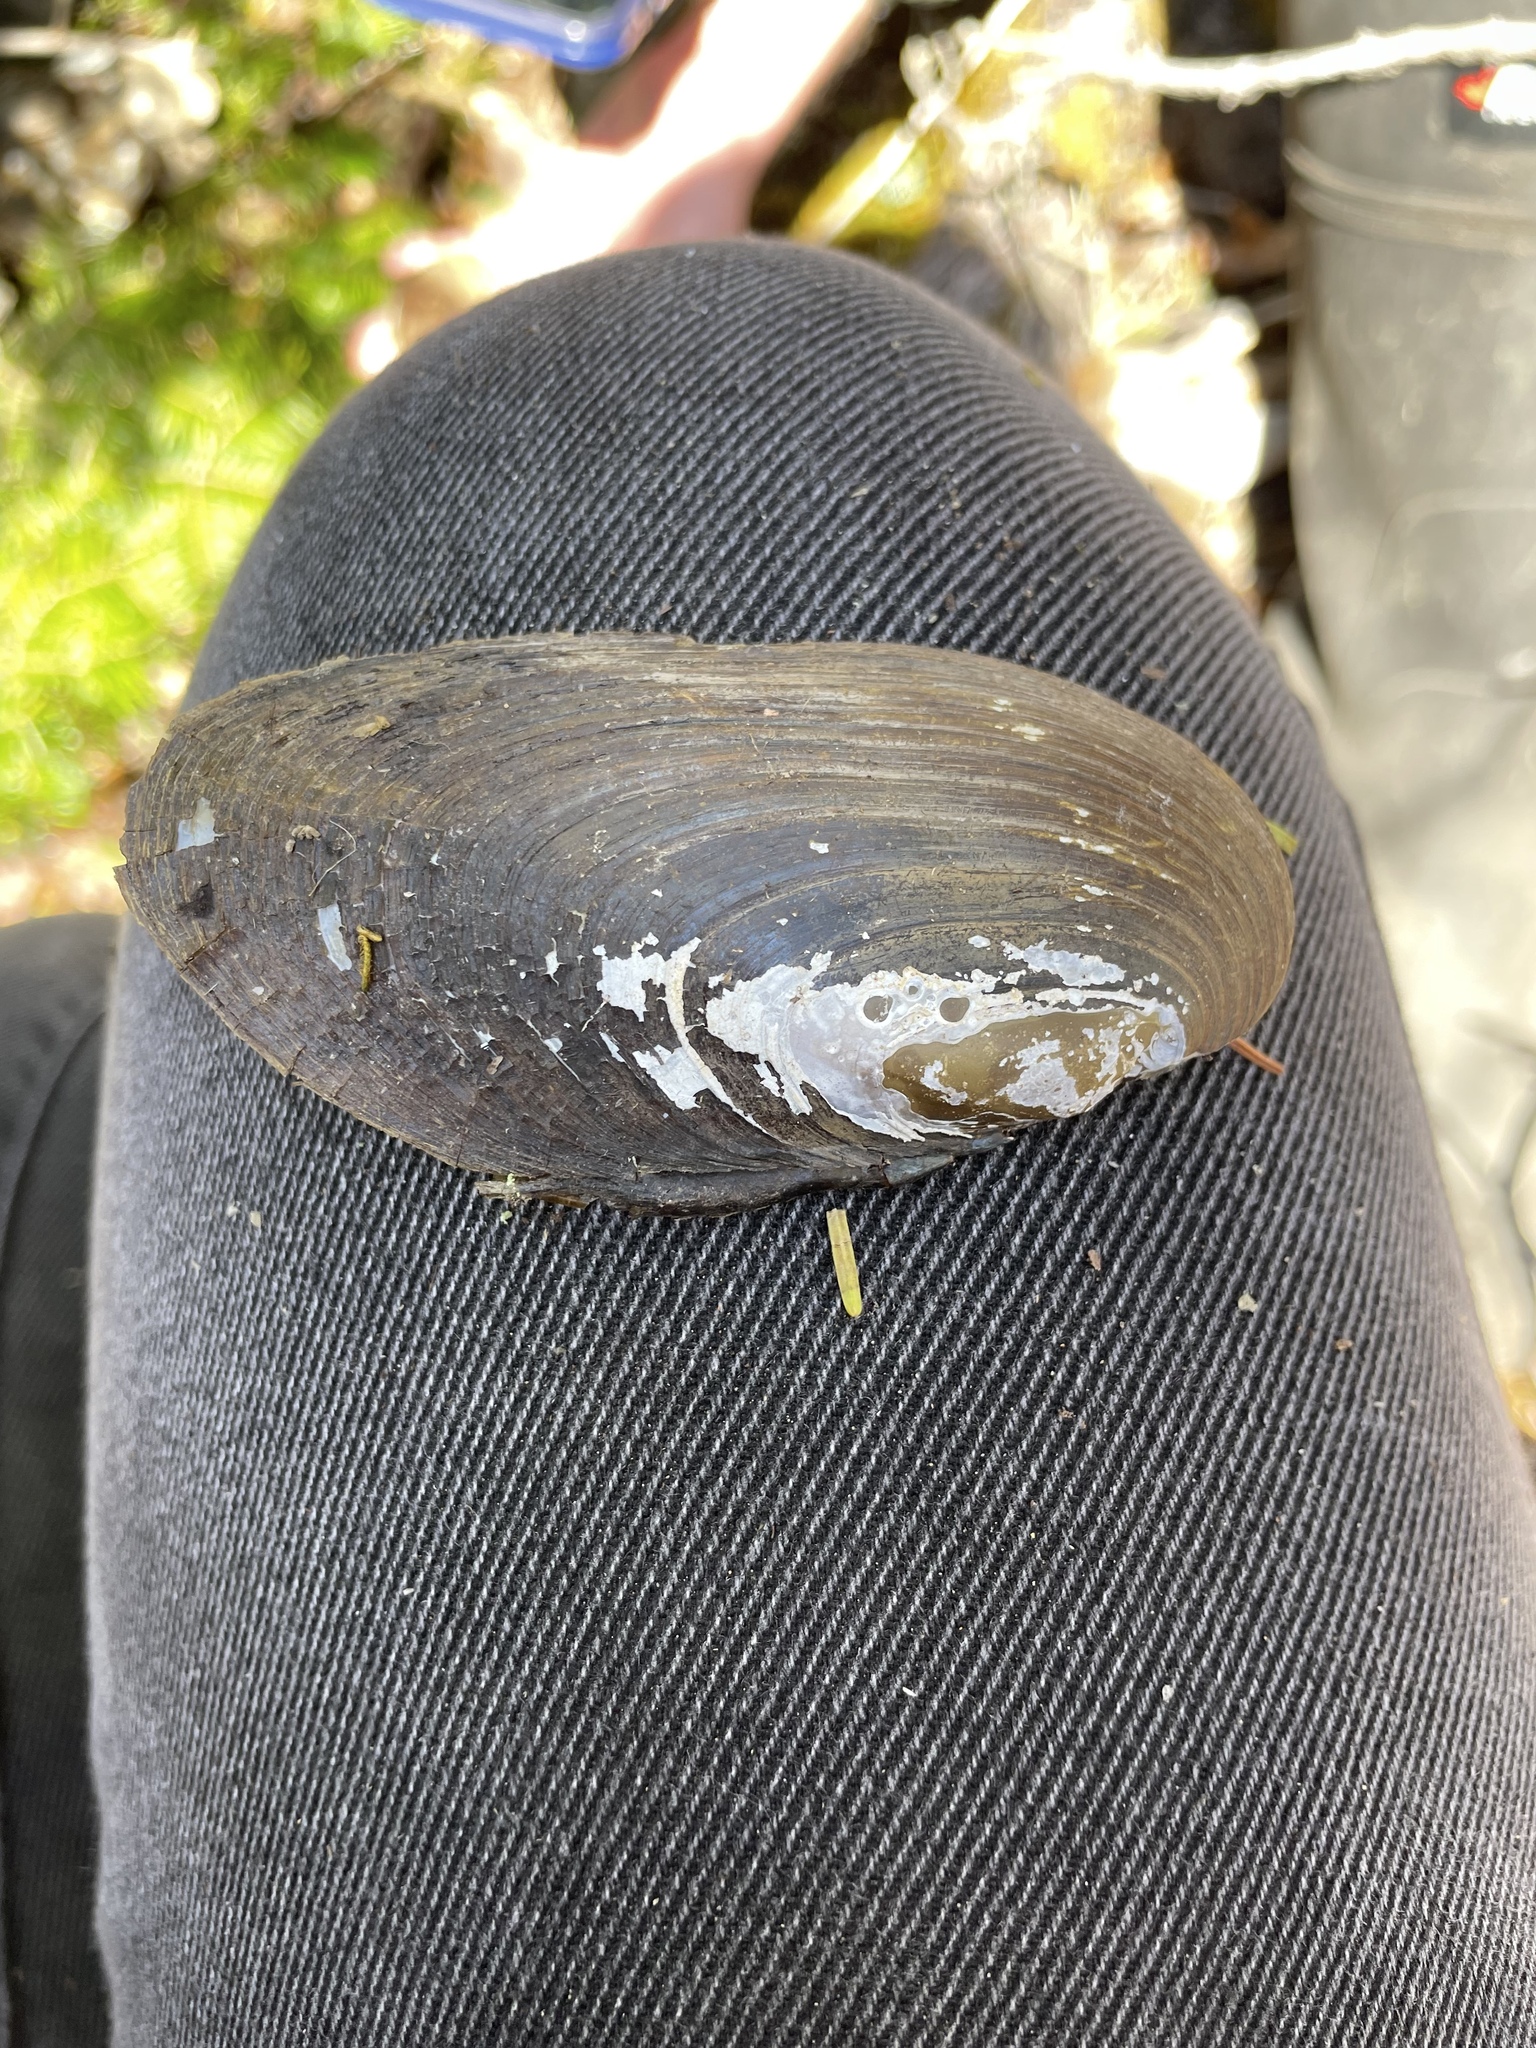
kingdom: Animalia
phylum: Mollusca
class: Bivalvia
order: Unionida
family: Unionidae
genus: Elliptio
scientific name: Elliptio complanata
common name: Eastern elliptio
